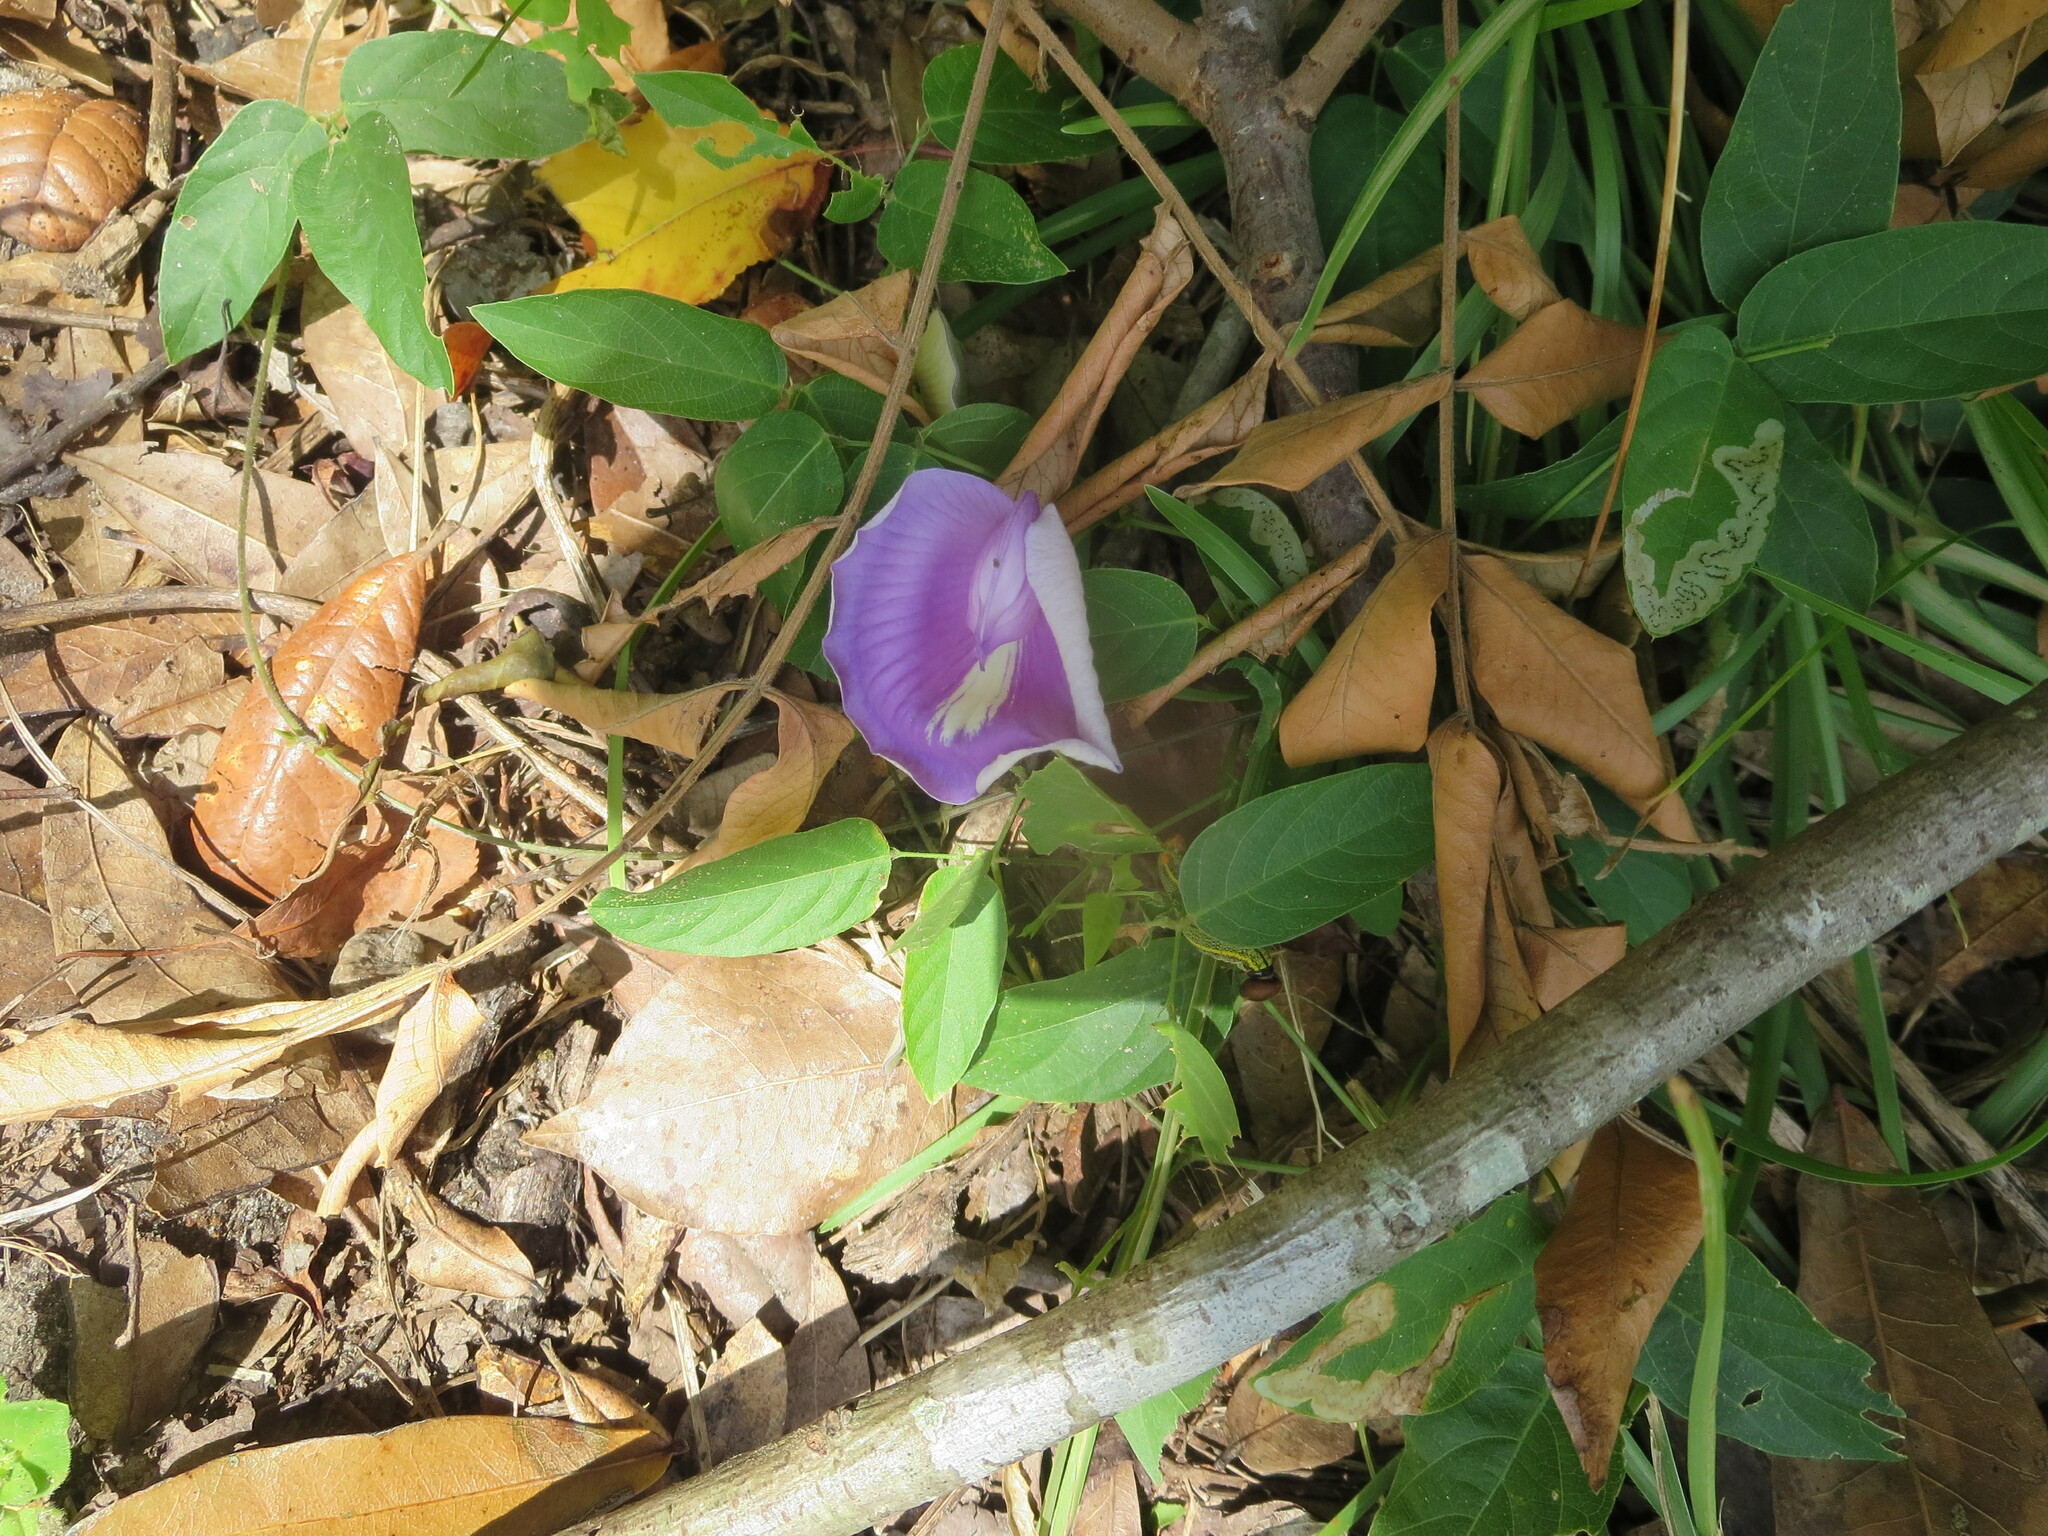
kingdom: Plantae
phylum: Tracheophyta
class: Magnoliopsida
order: Fabales
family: Fabaceae
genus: Centrosema
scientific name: Centrosema virginianum
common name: Butterfly-pea
